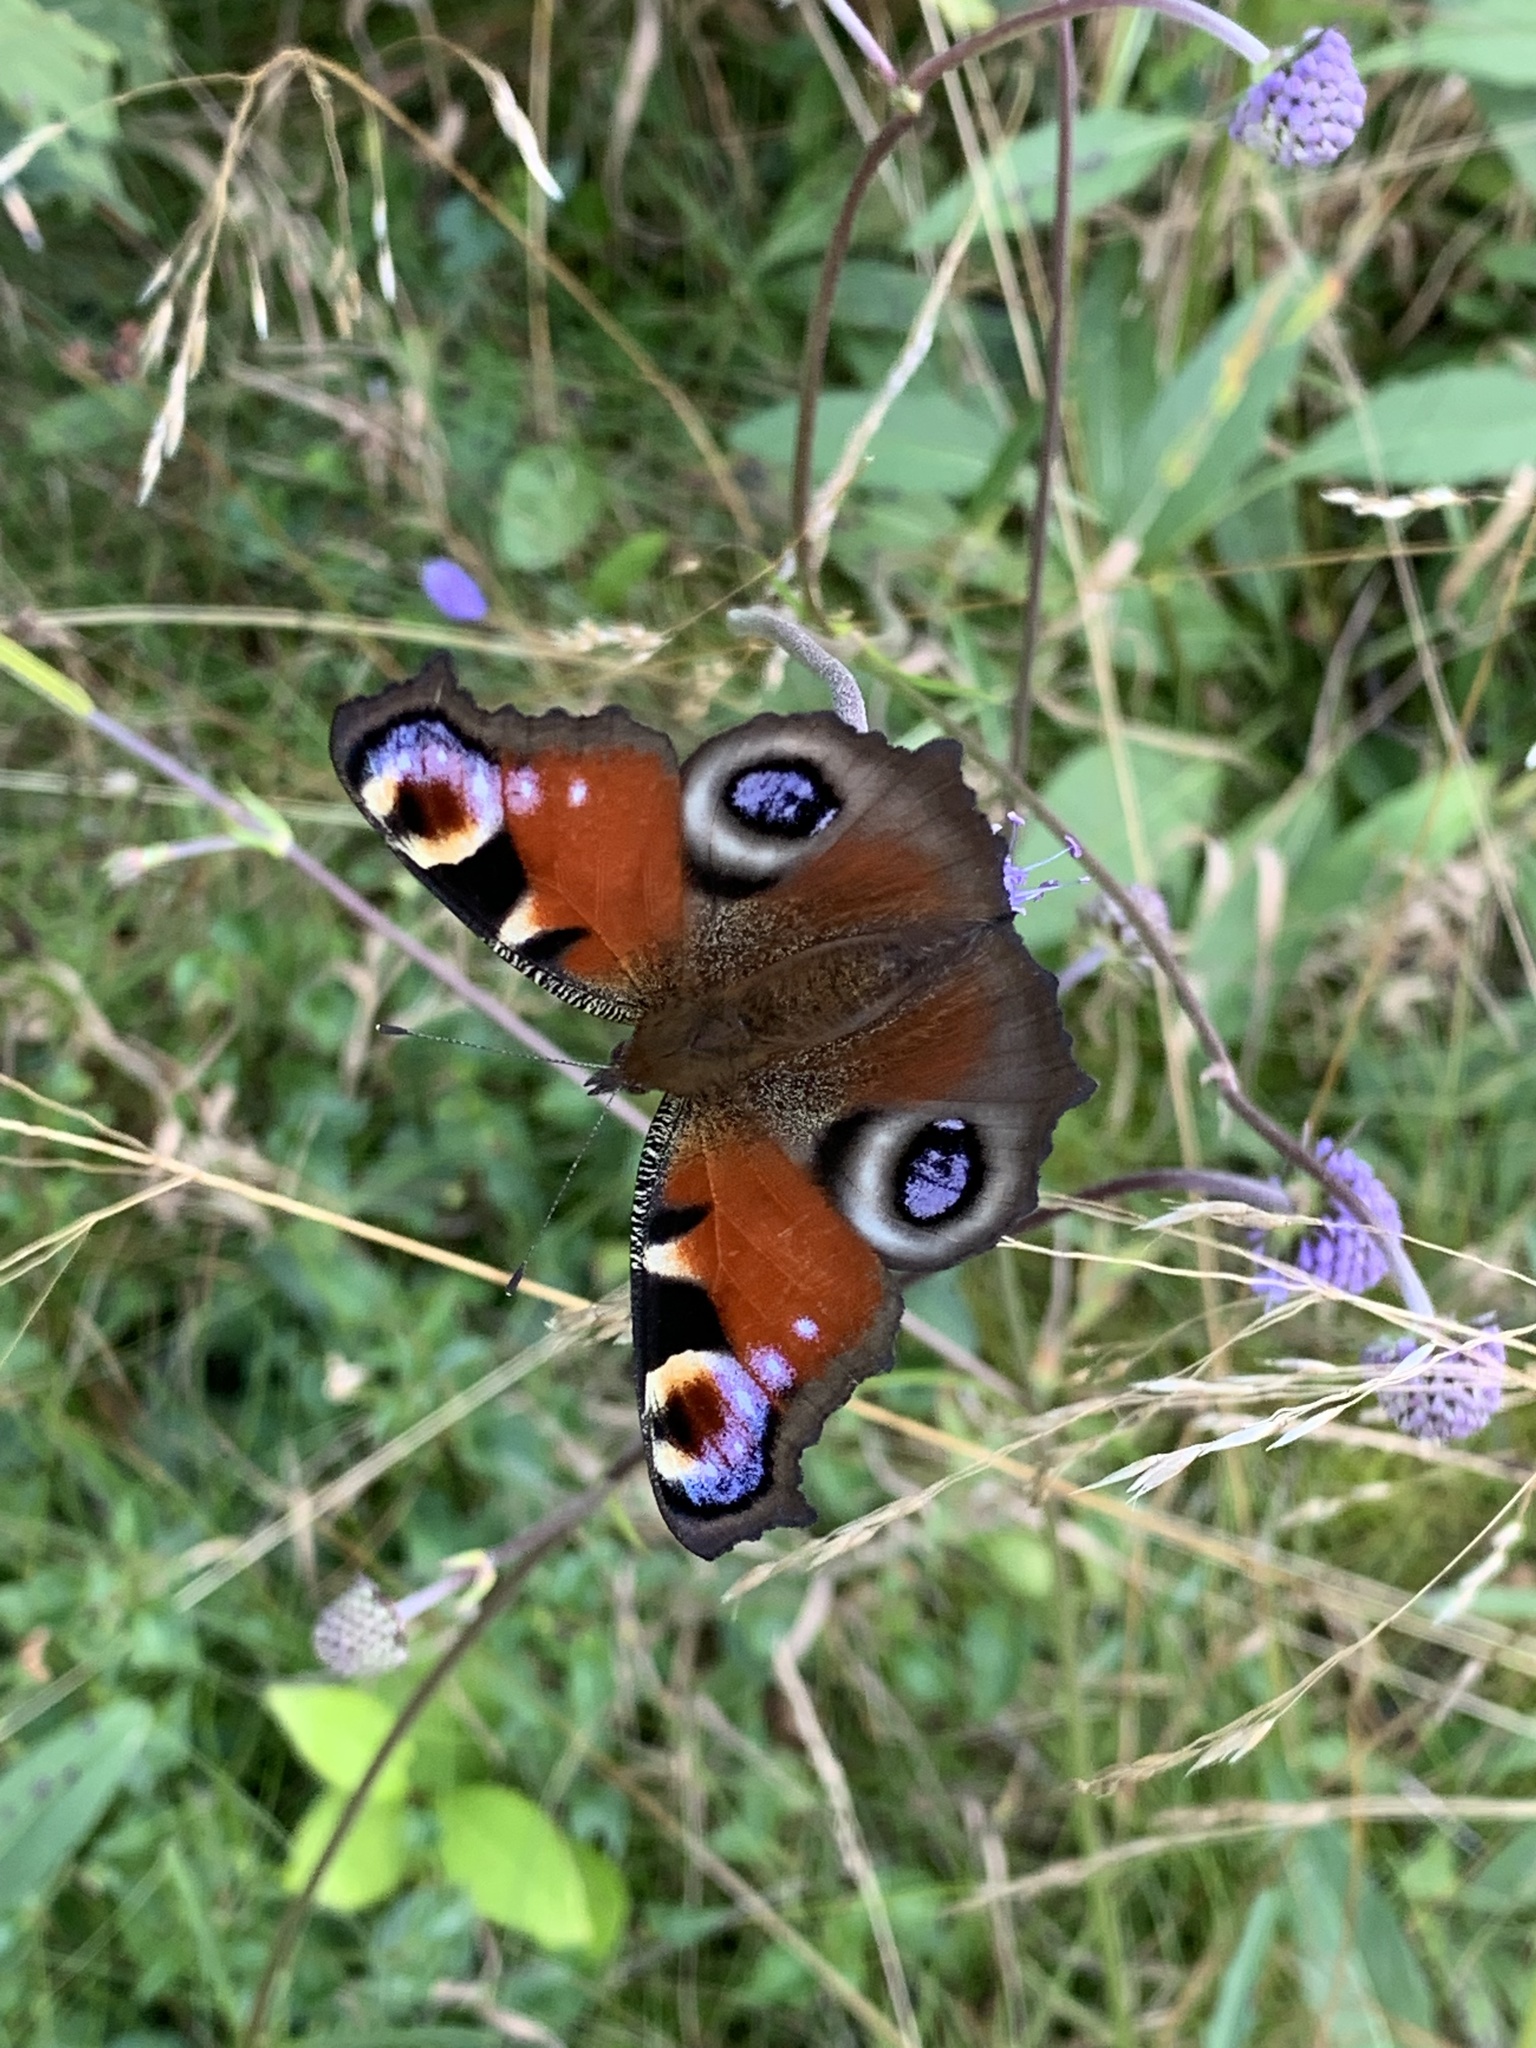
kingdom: Animalia
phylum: Arthropoda
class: Insecta
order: Lepidoptera
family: Nymphalidae
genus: Aglais
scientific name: Aglais io
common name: Peacock
